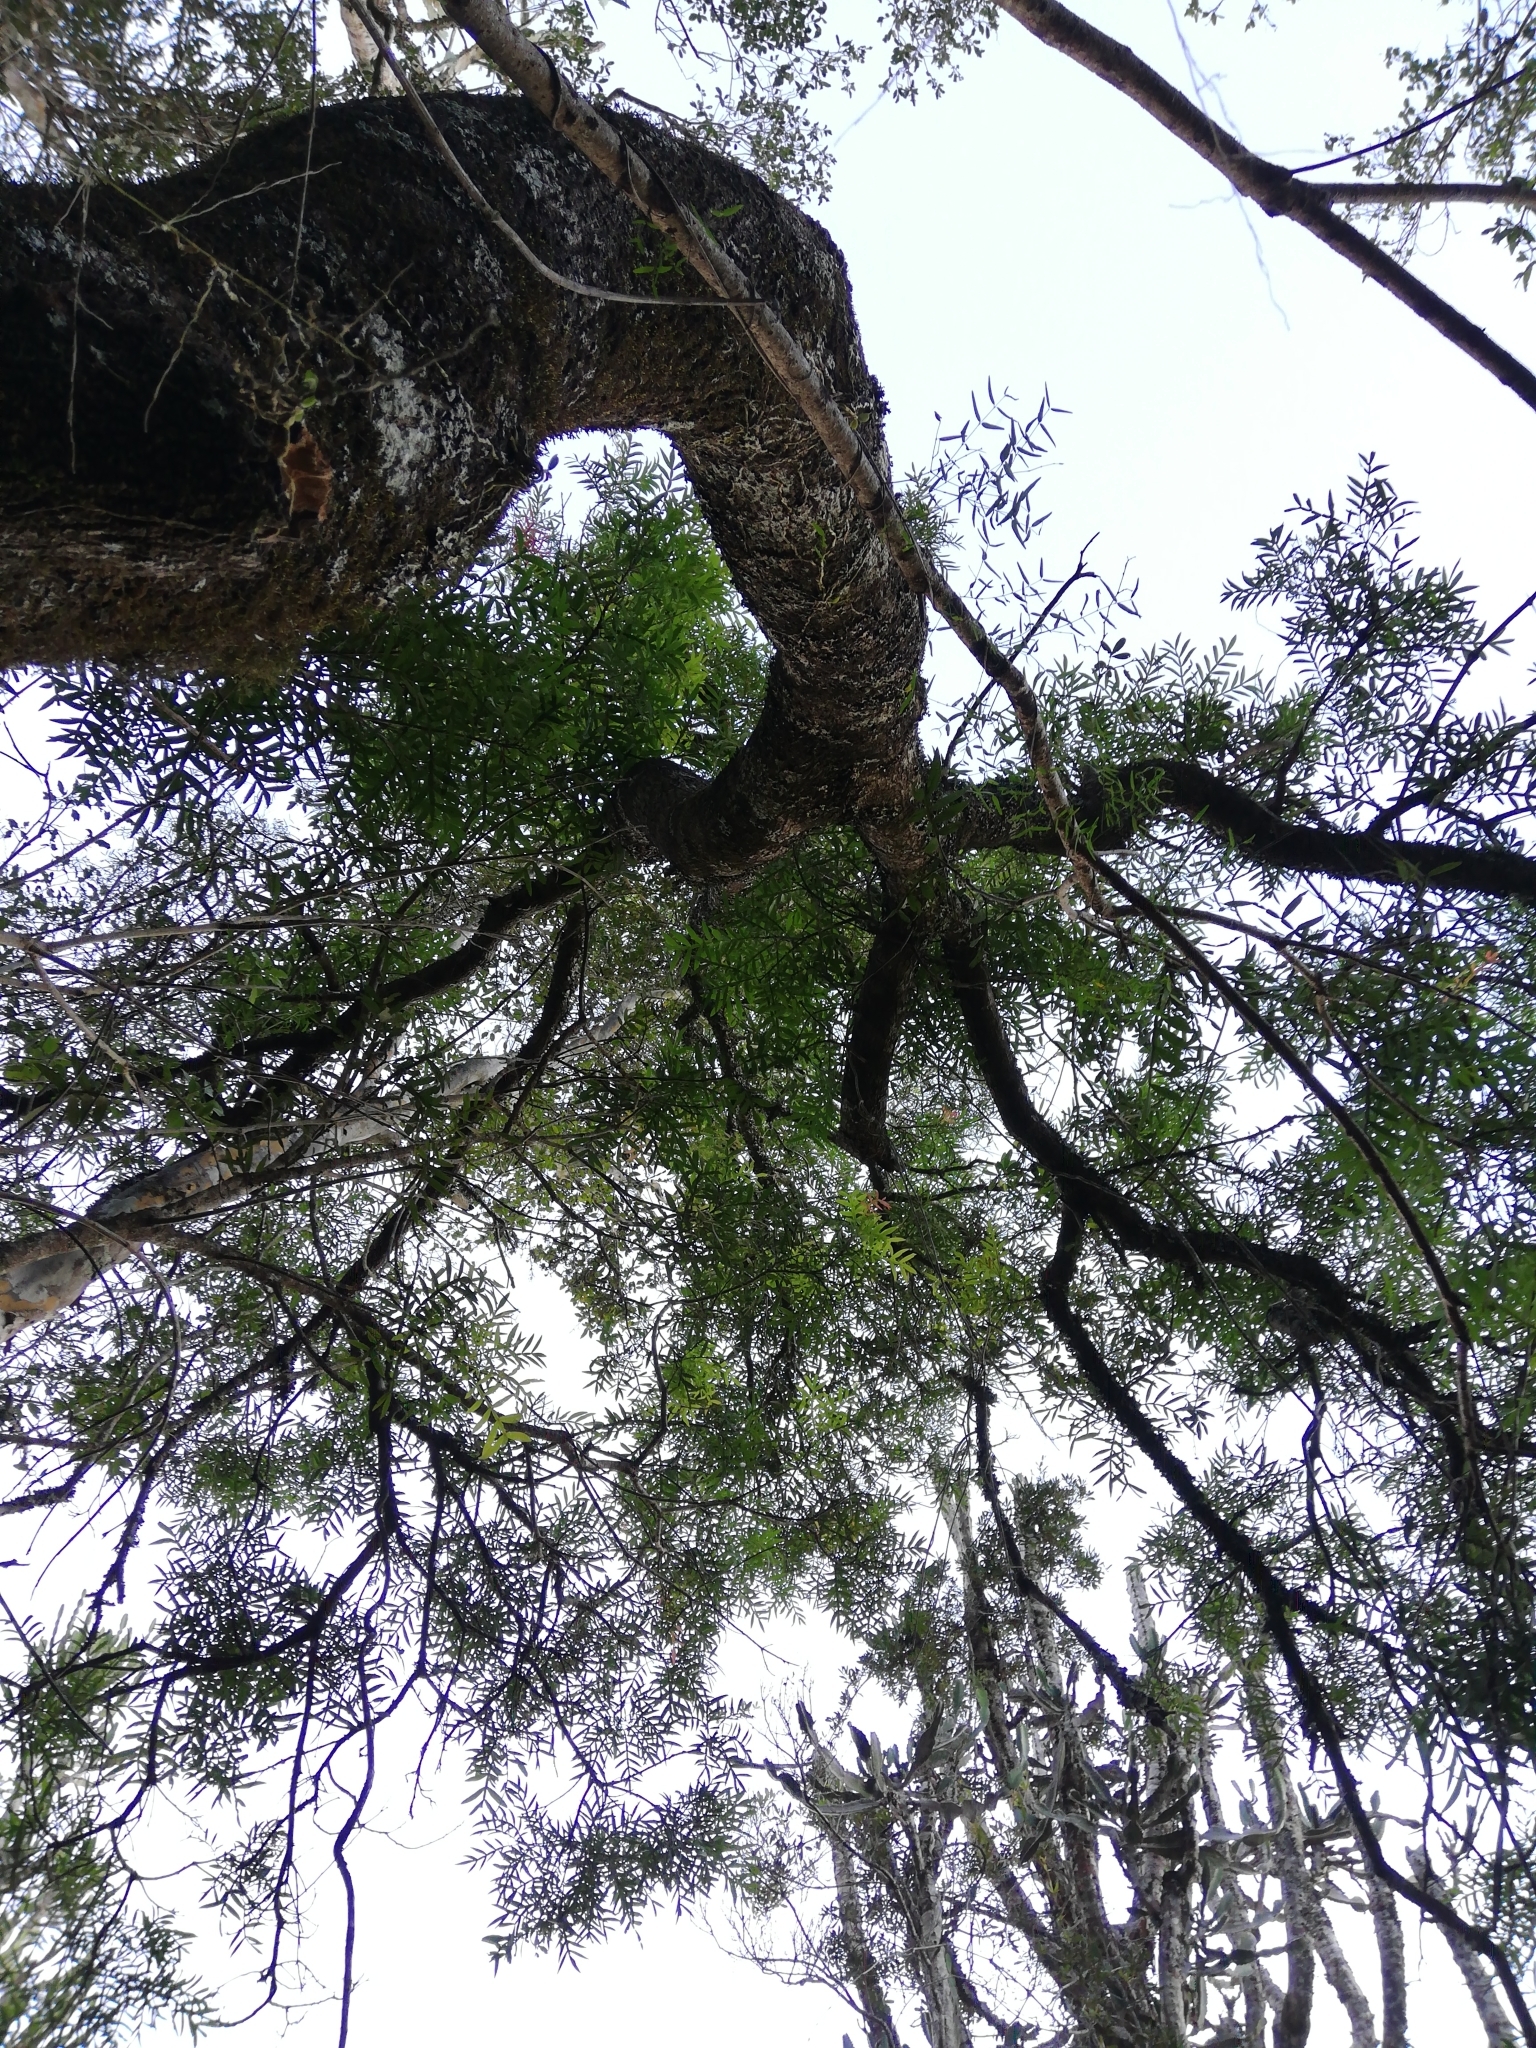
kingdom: Plantae
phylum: Tracheophyta
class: Magnoliopsida
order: Sapindales
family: Anacardiaceae
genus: Loxostylis
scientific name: Loxostylis alata
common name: Wild peppertree
